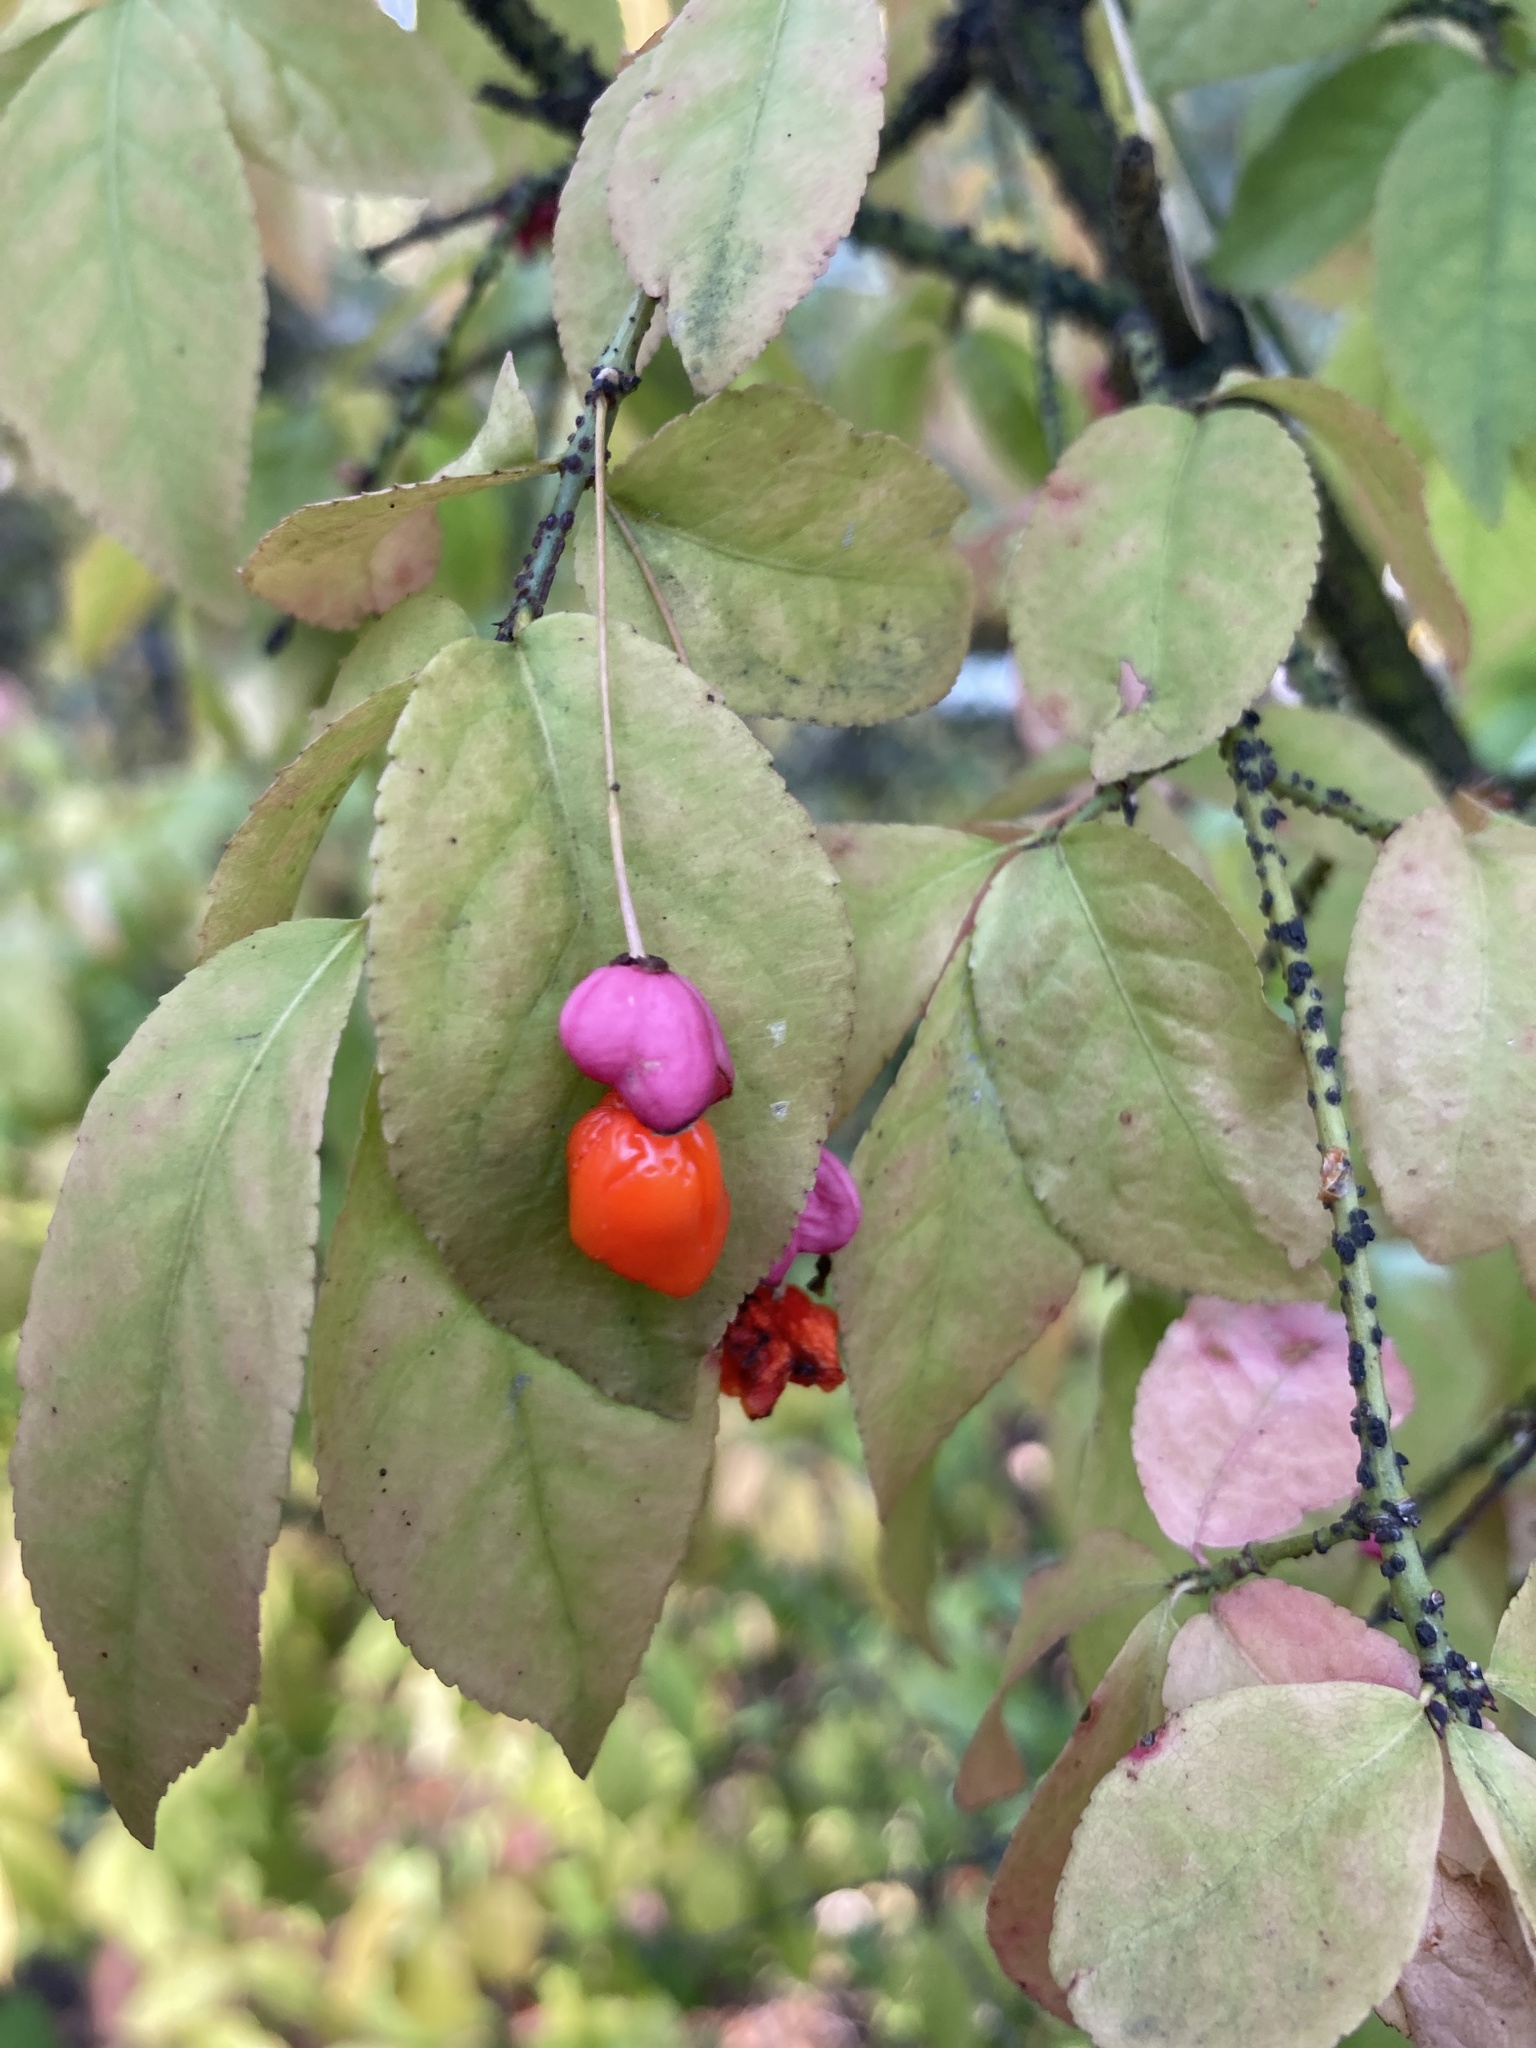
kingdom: Plantae
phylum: Tracheophyta
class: Magnoliopsida
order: Celastrales
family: Celastraceae
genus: Euonymus
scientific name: Euonymus verrucosus
